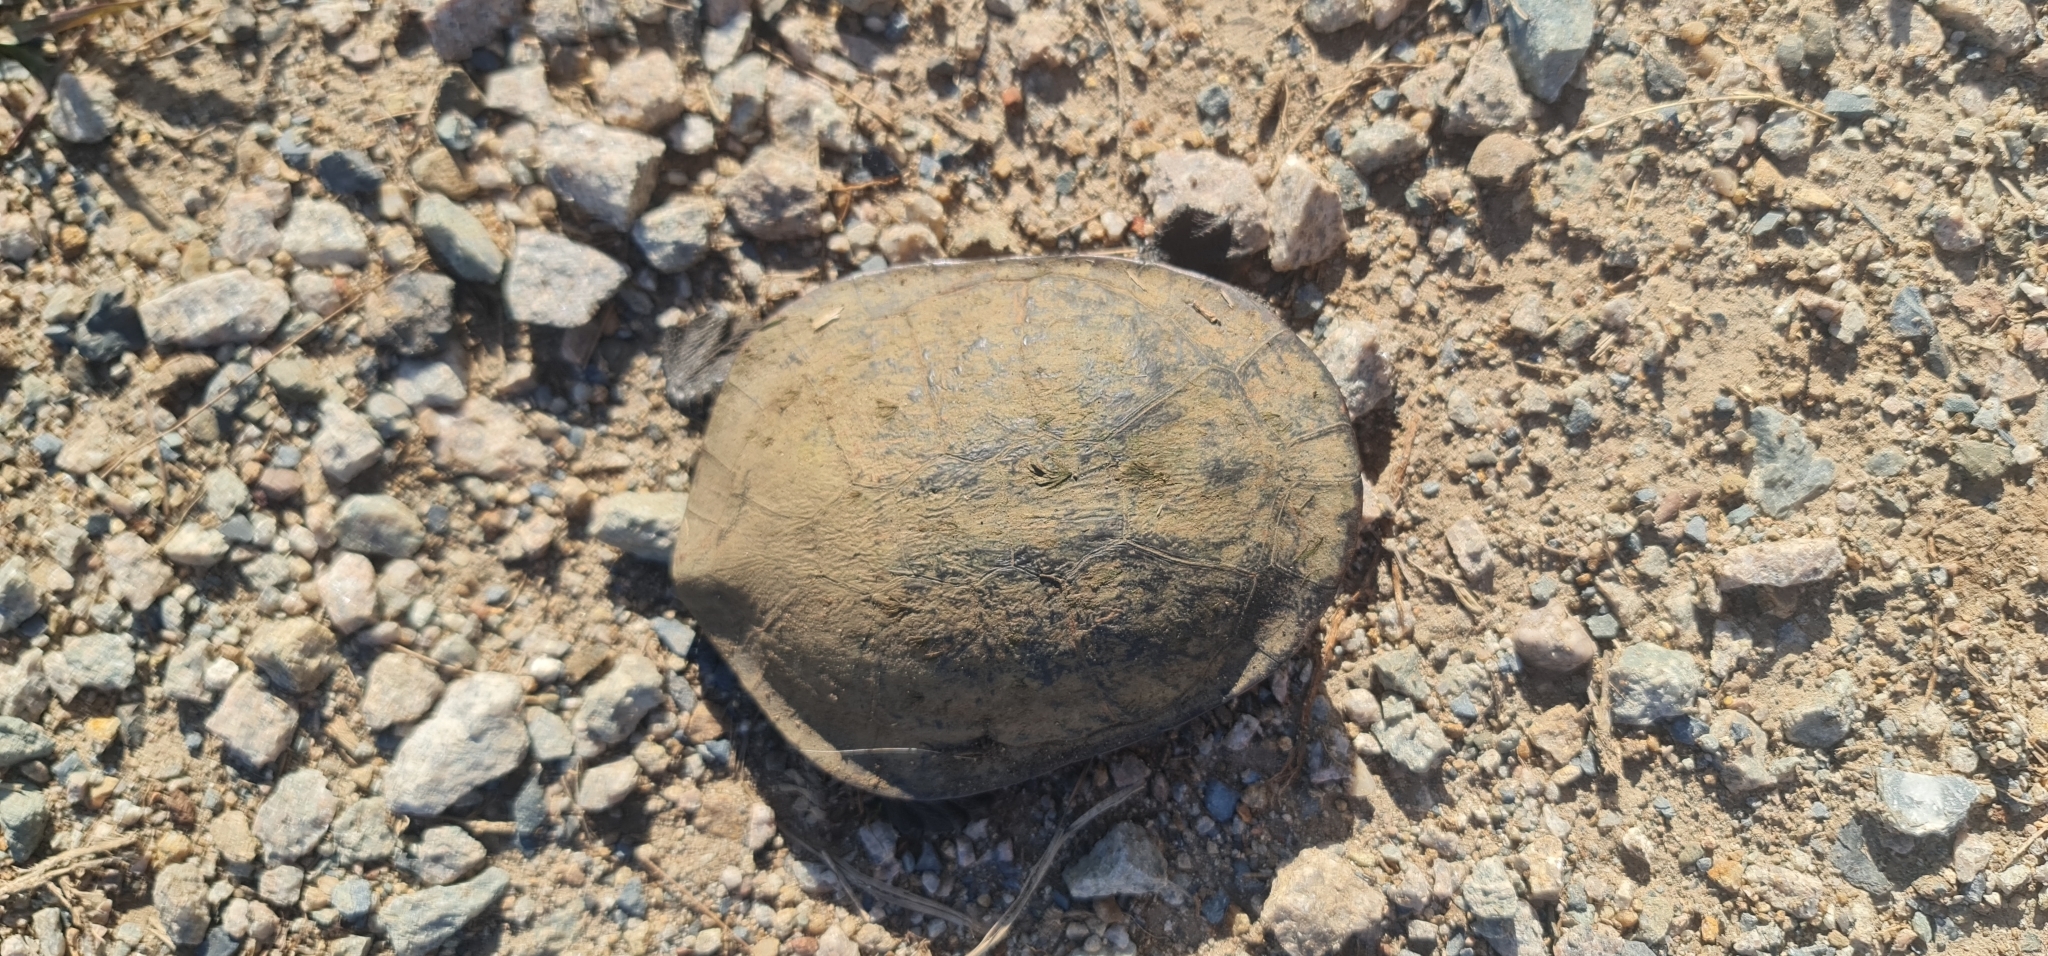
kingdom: Animalia
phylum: Chordata
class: Testudines
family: Chelidae
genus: Chelodina
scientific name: Chelodina longicollis
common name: Eastern snake-necked turtle
